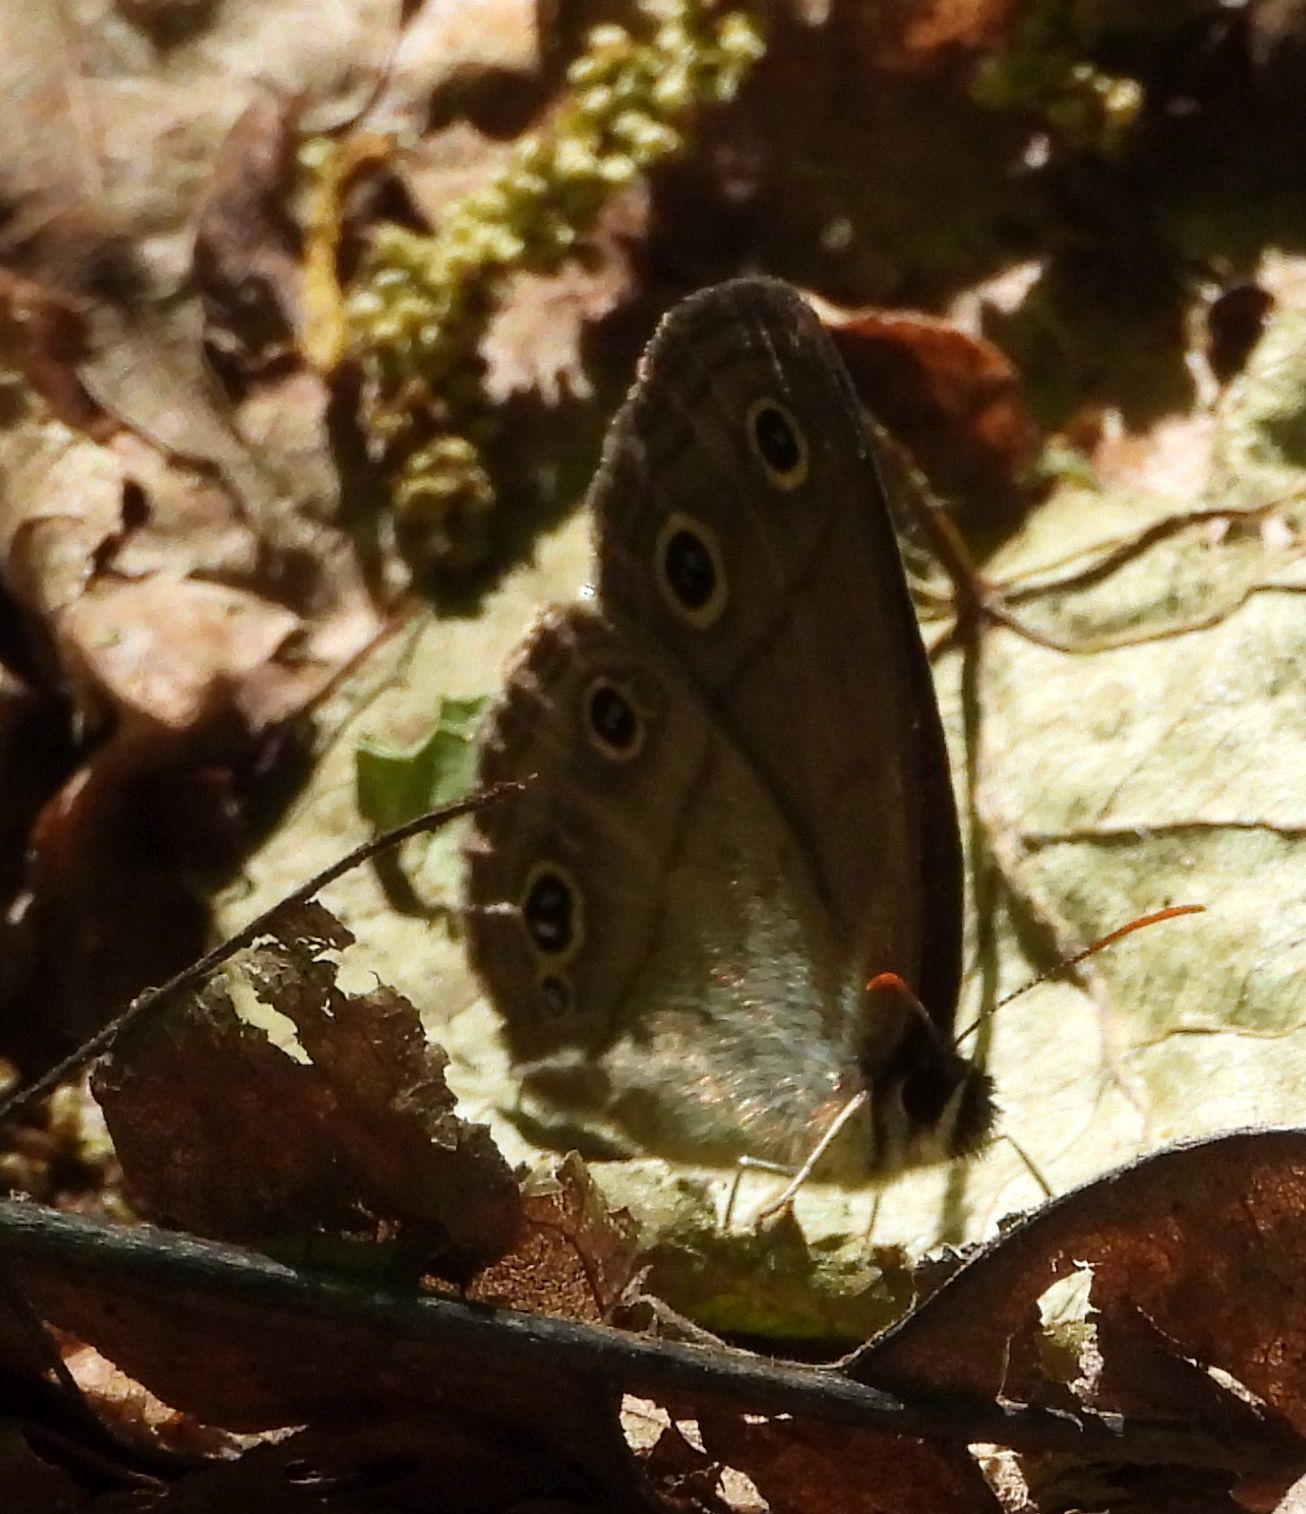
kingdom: Animalia
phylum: Arthropoda
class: Insecta
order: Lepidoptera
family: Nymphalidae
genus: Euptychia
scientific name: Euptychia cymela
